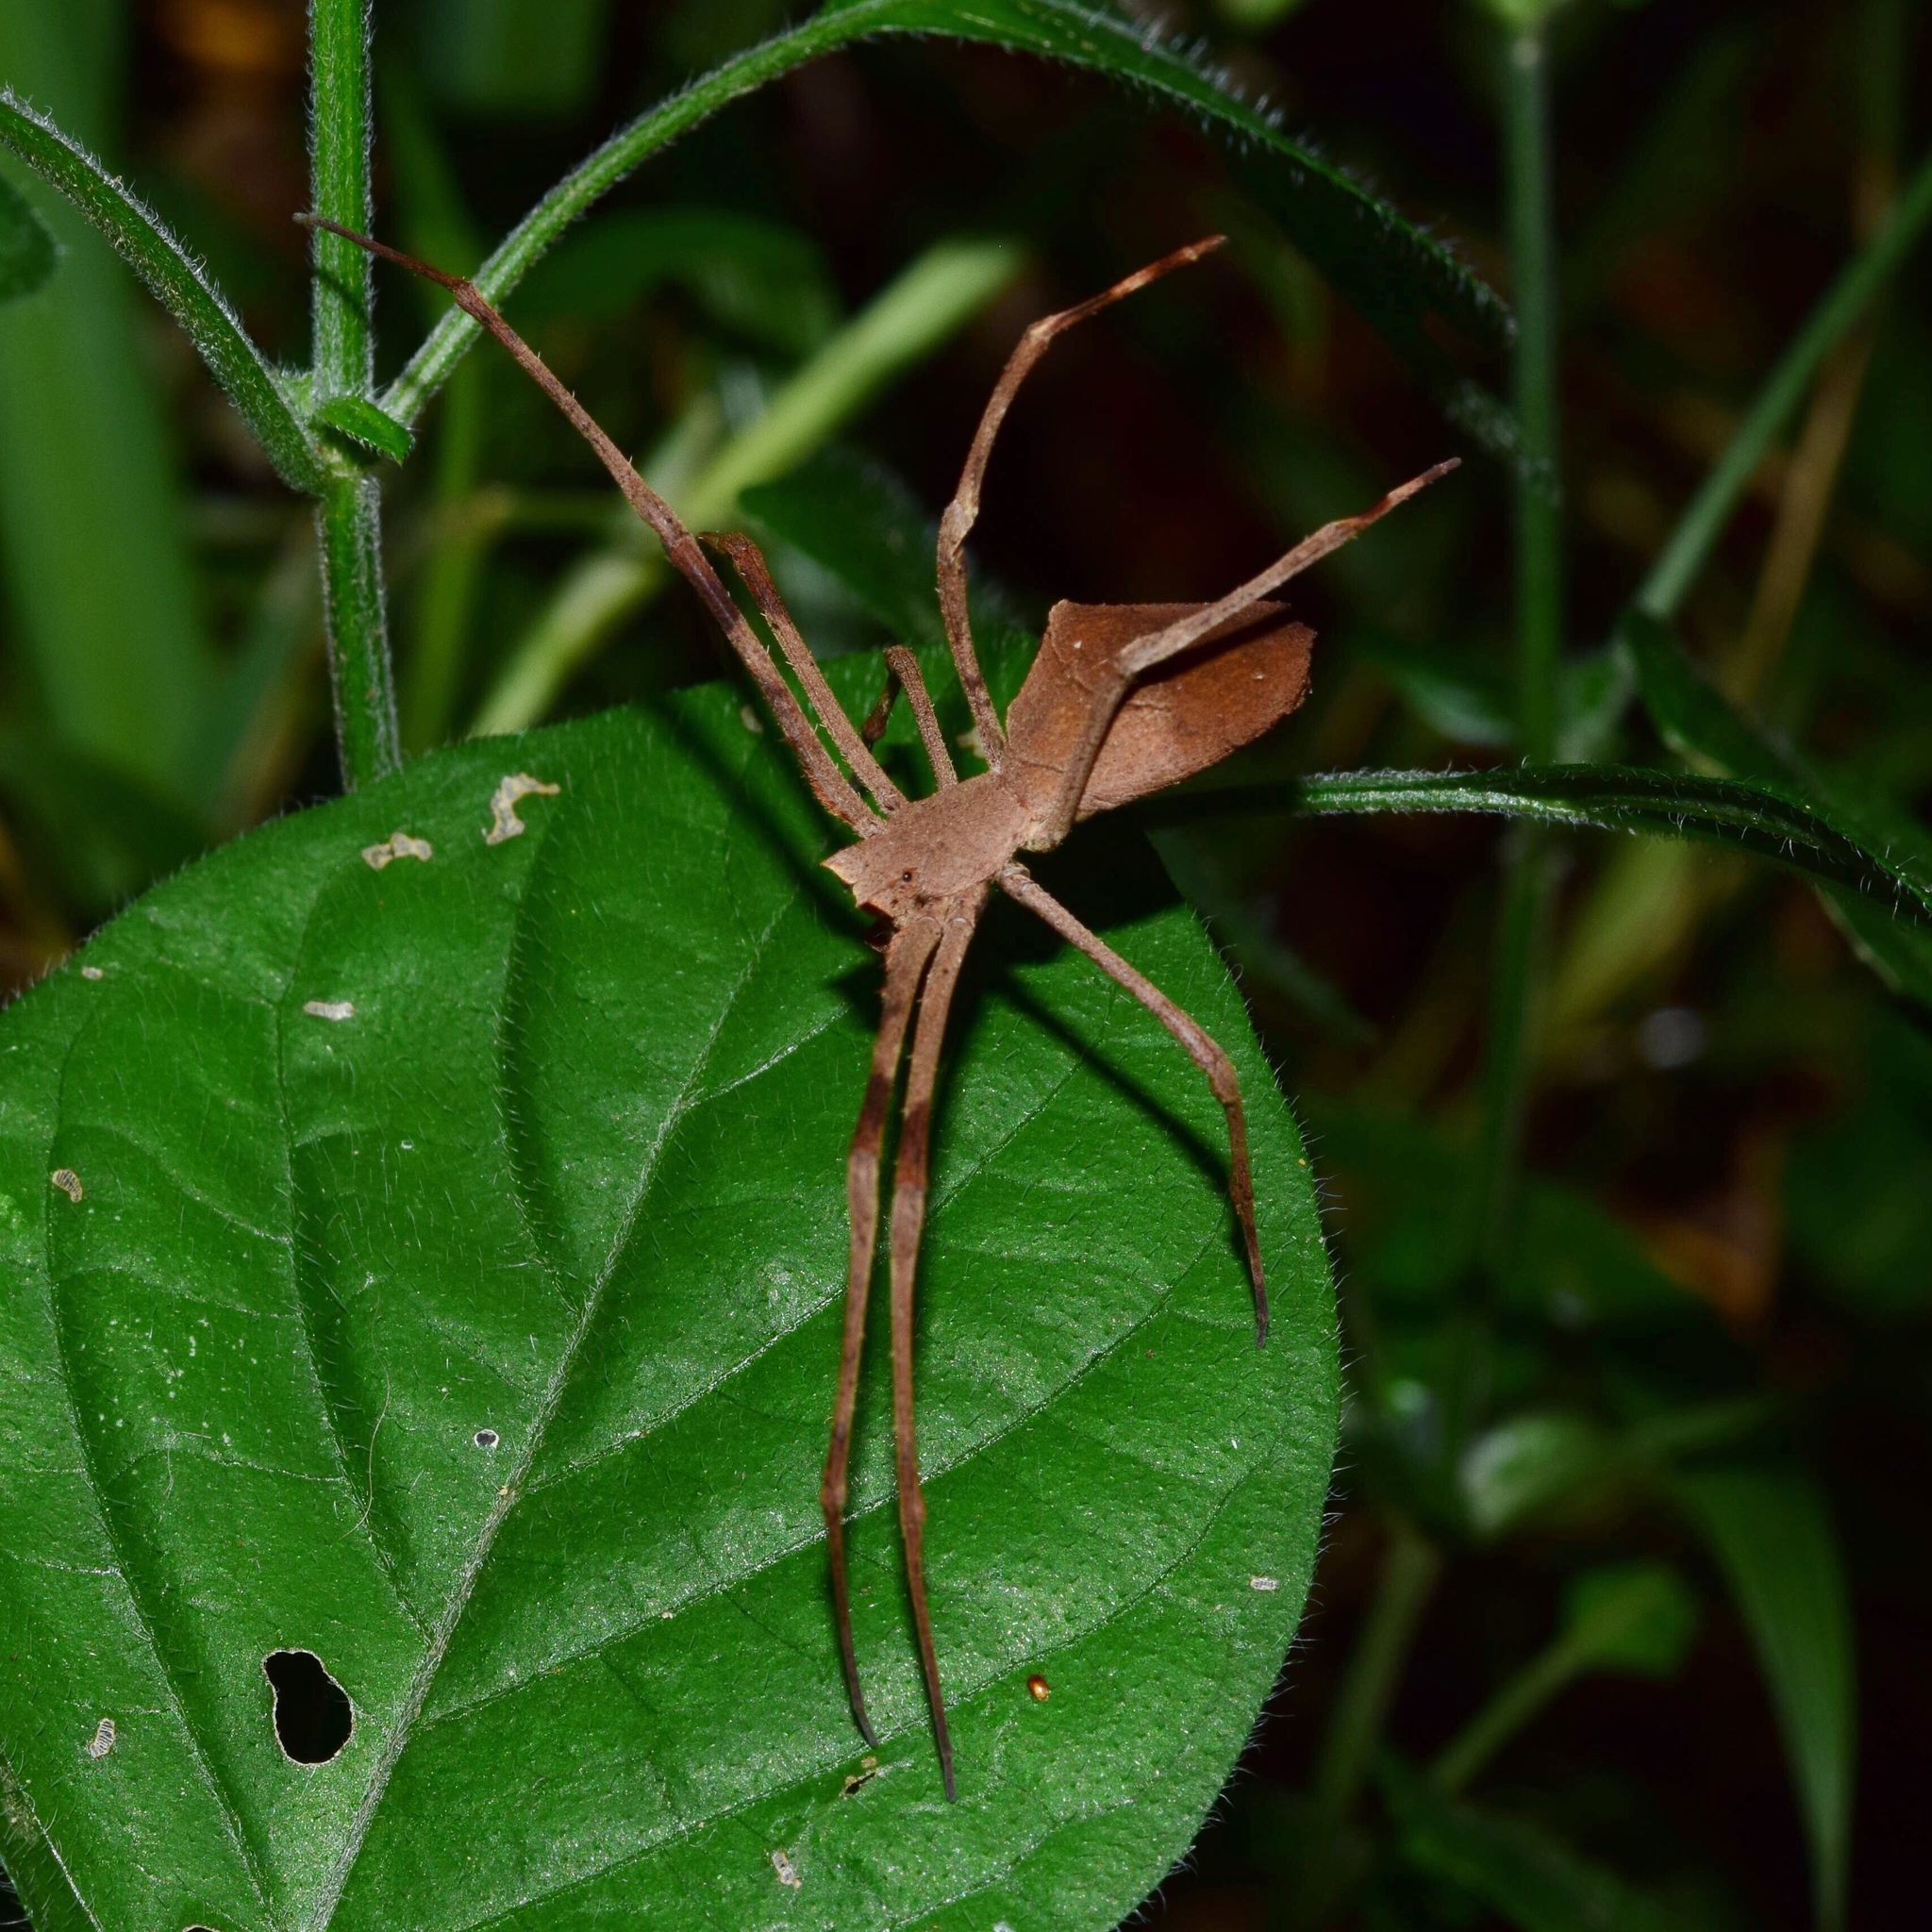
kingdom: Animalia
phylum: Arthropoda
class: Arachnida
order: Araneae
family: Deinopidae
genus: Deinopis
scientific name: Deinopis anchietae
